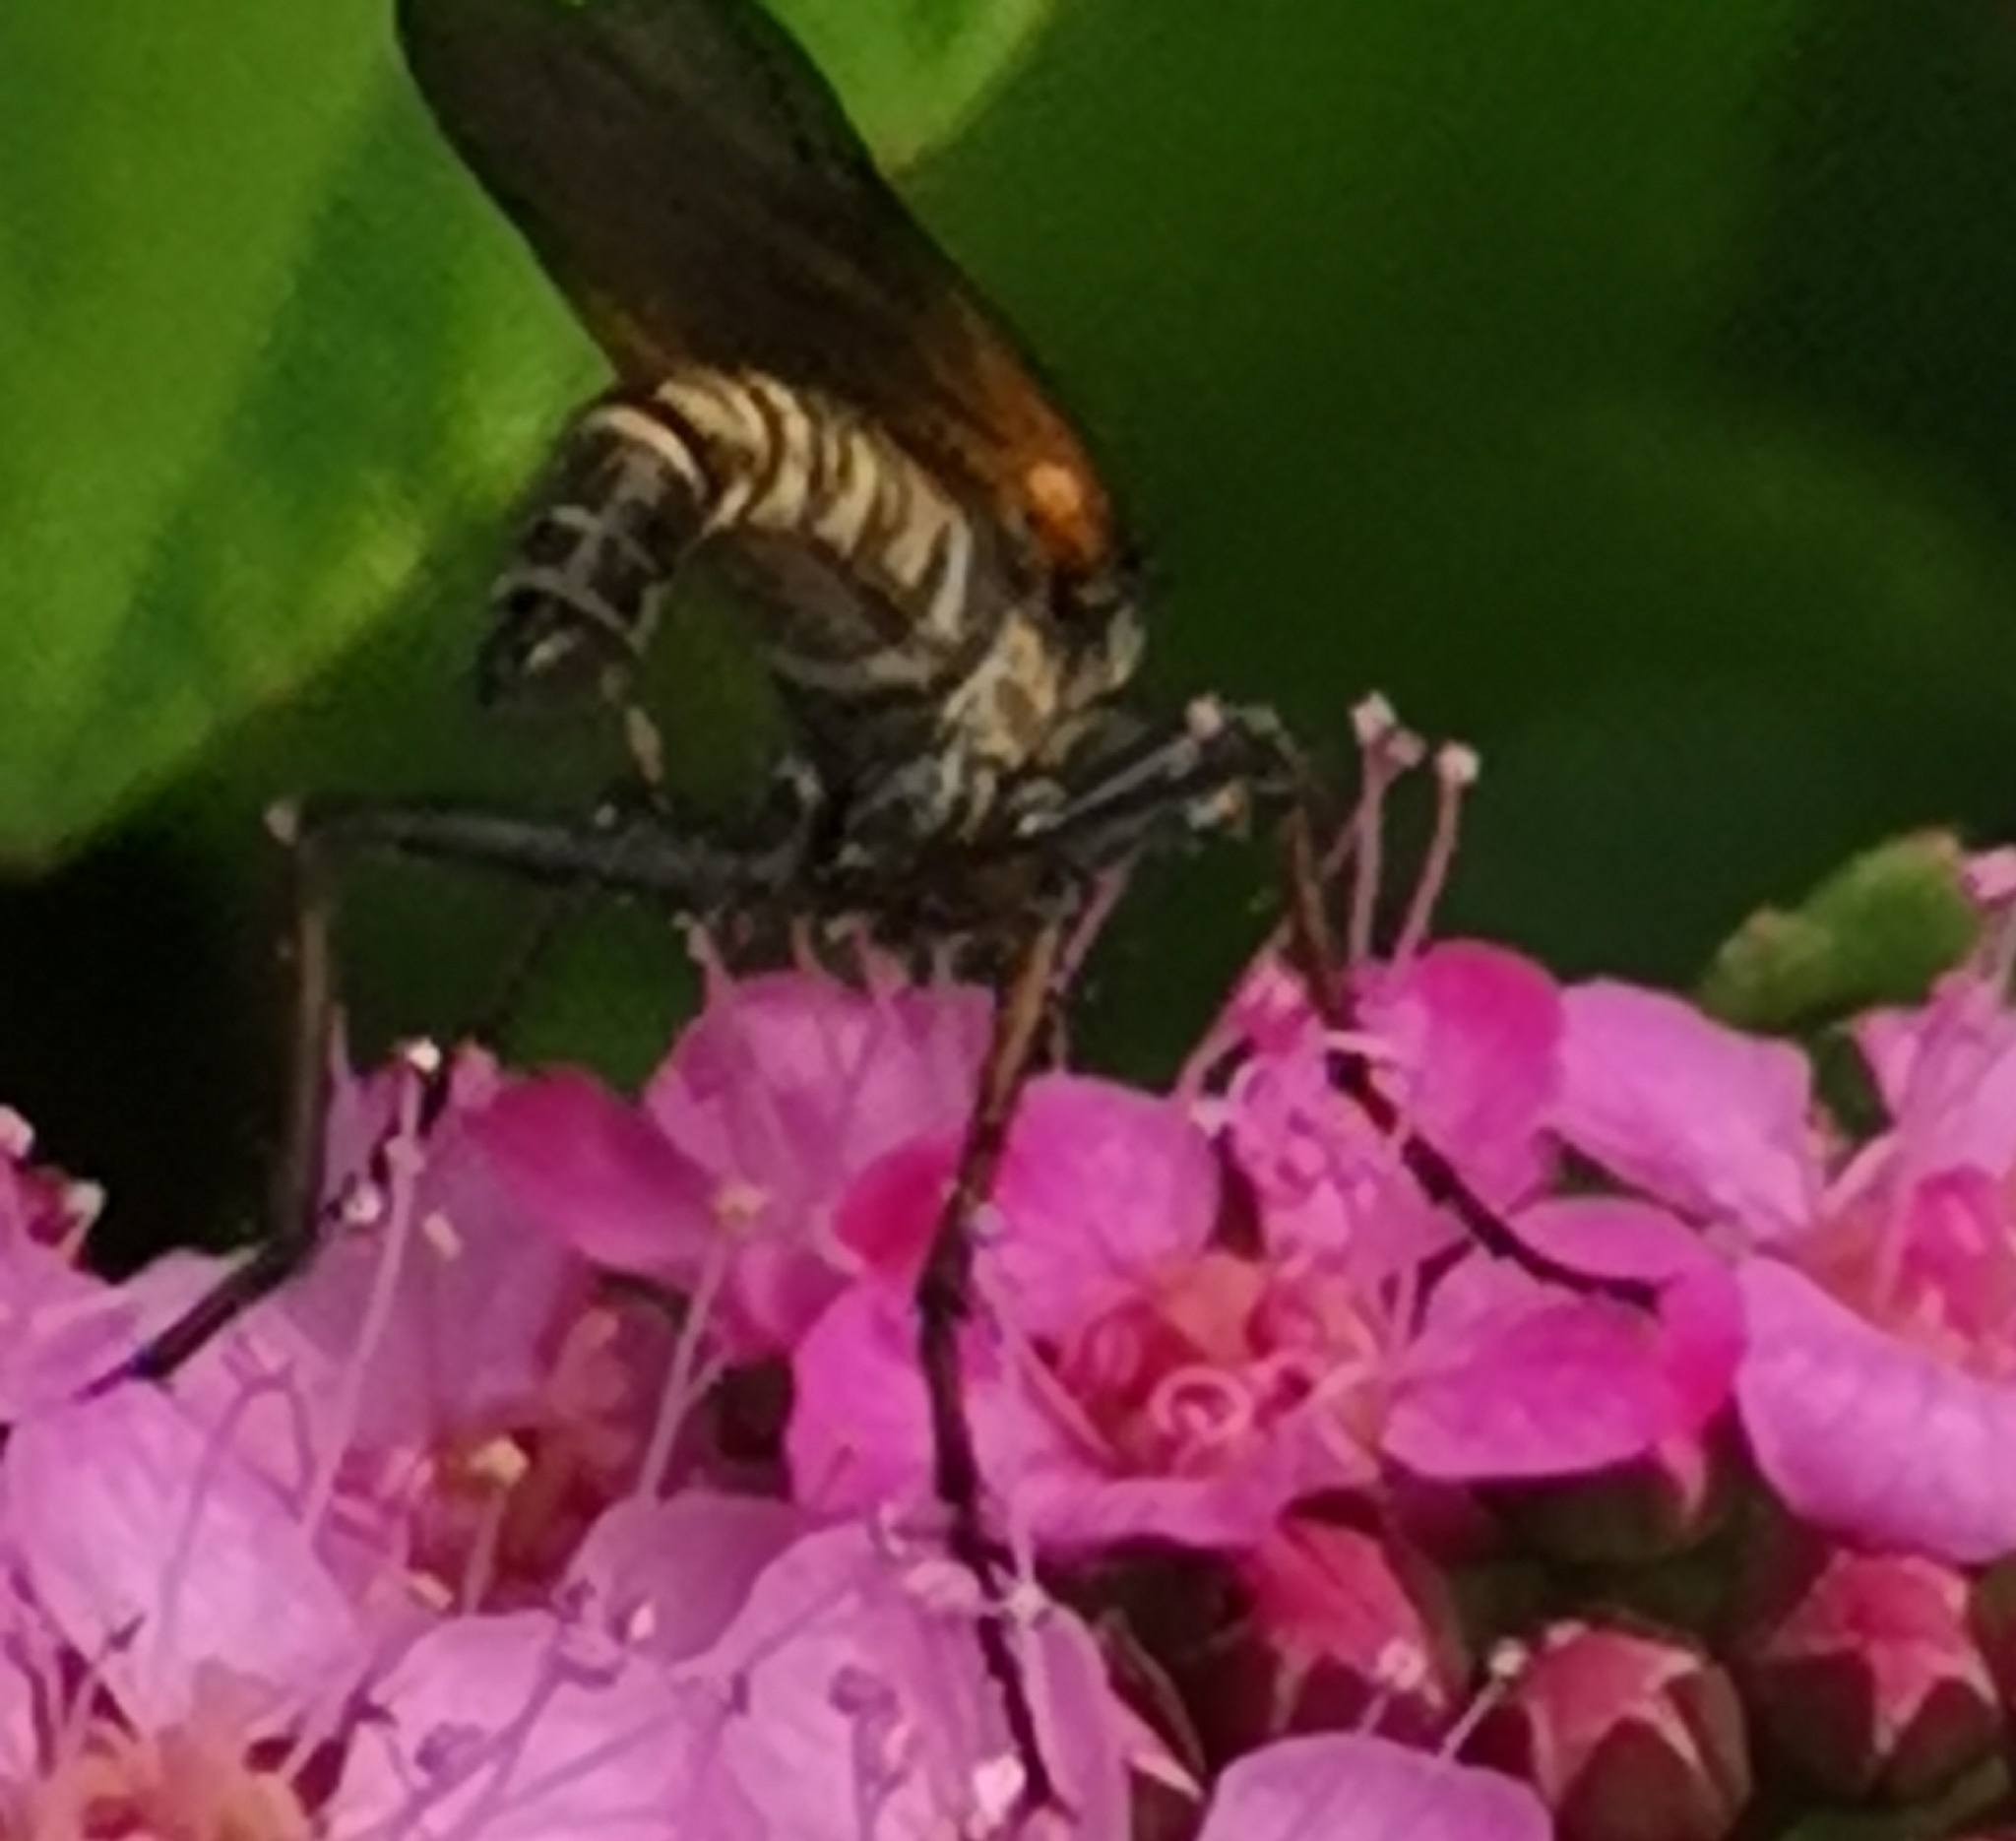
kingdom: Animalia
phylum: Arthropoda
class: Insecta
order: Diptera
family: Empididae
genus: Empis
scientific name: Empis tessellata
